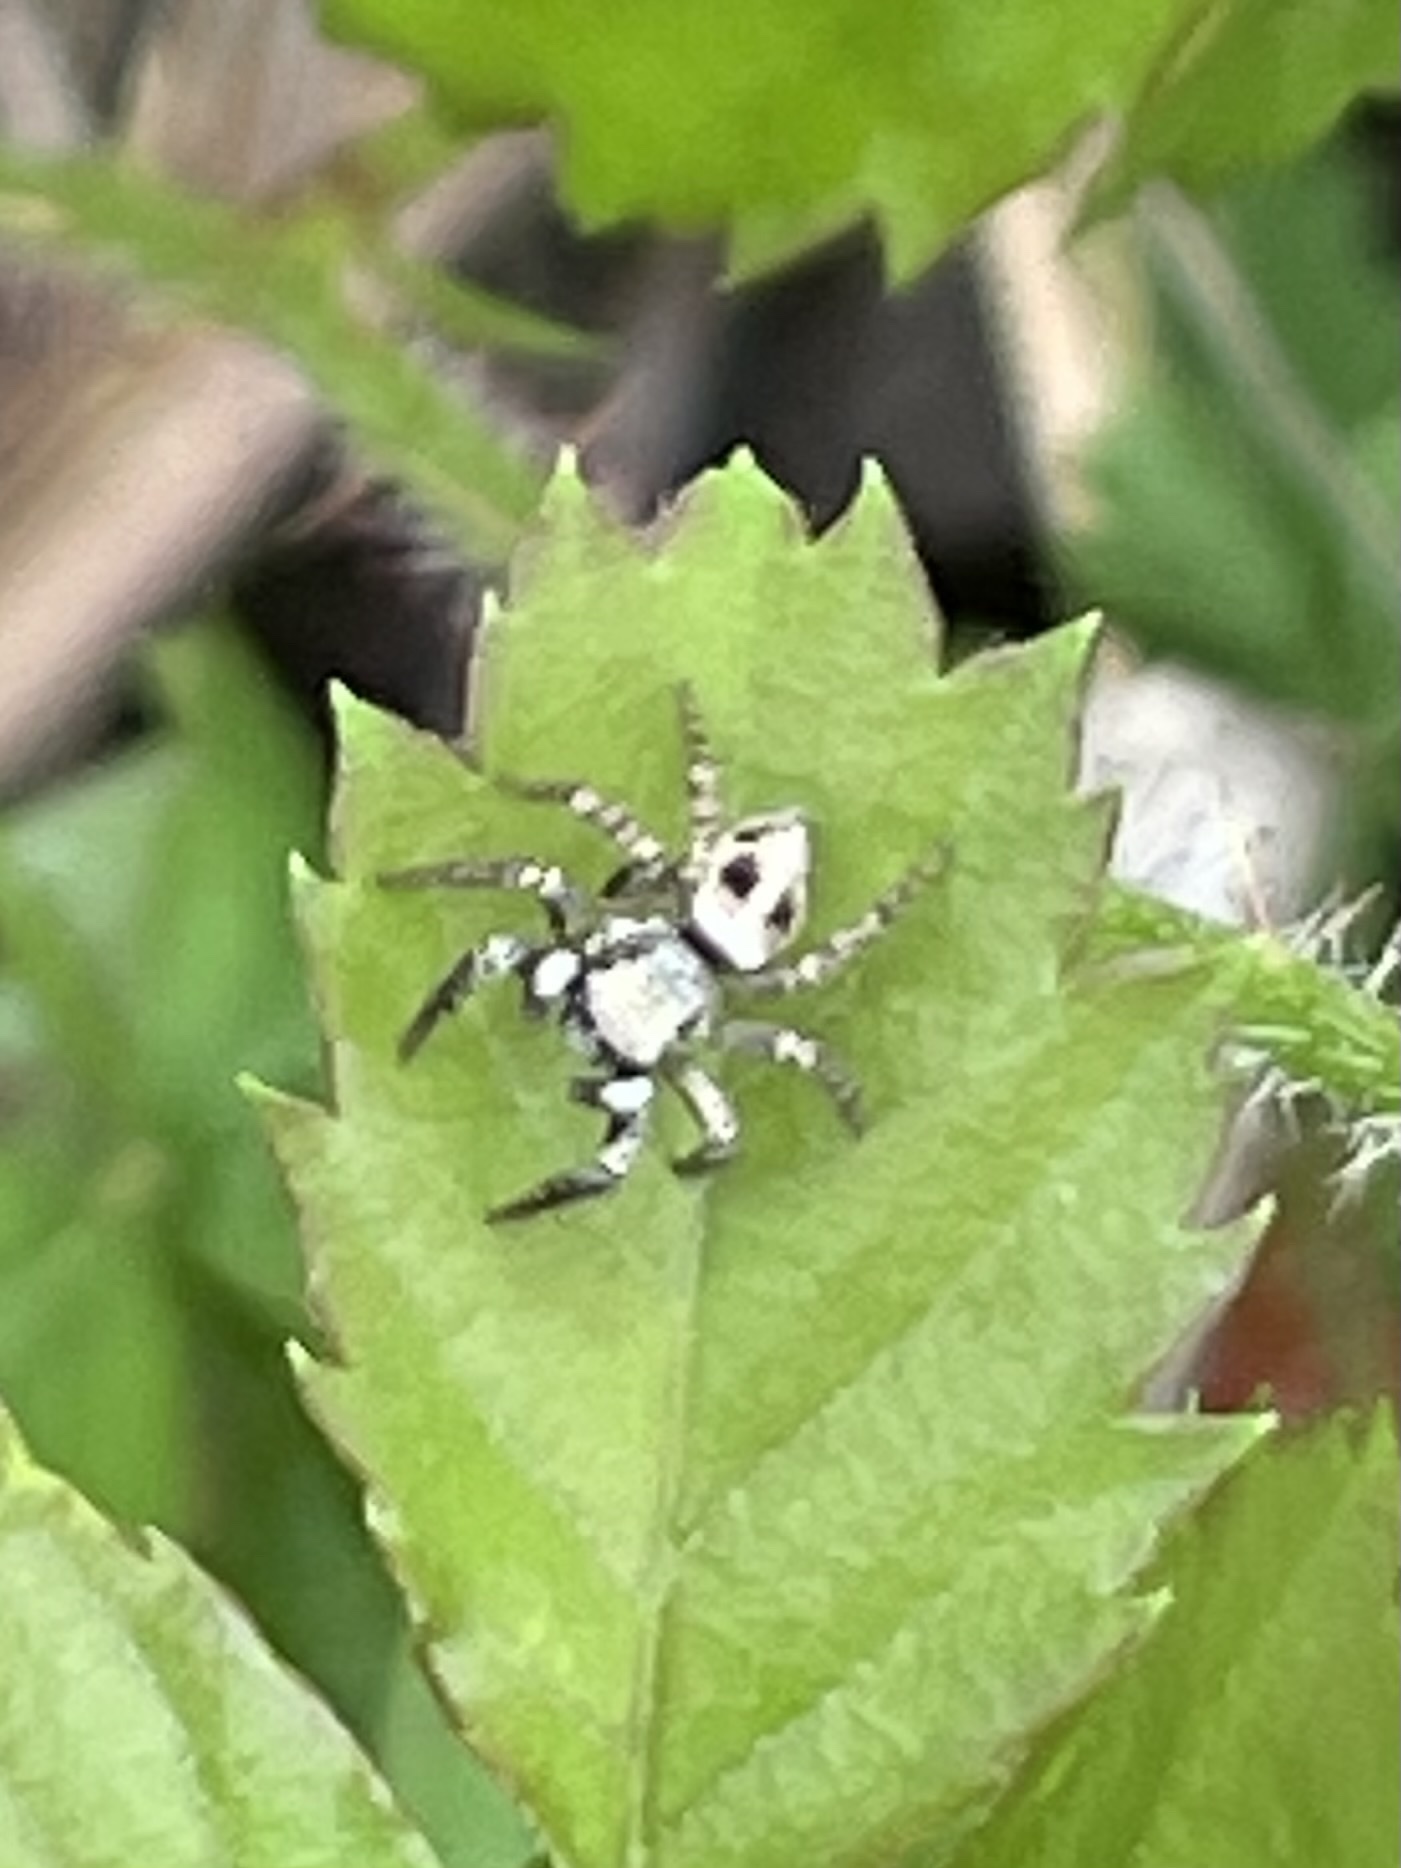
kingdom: Animalia
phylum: Arthropoda
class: Arachnida
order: Araneae
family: Salticidae
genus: Anasaitis
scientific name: Anasaitis canosa
